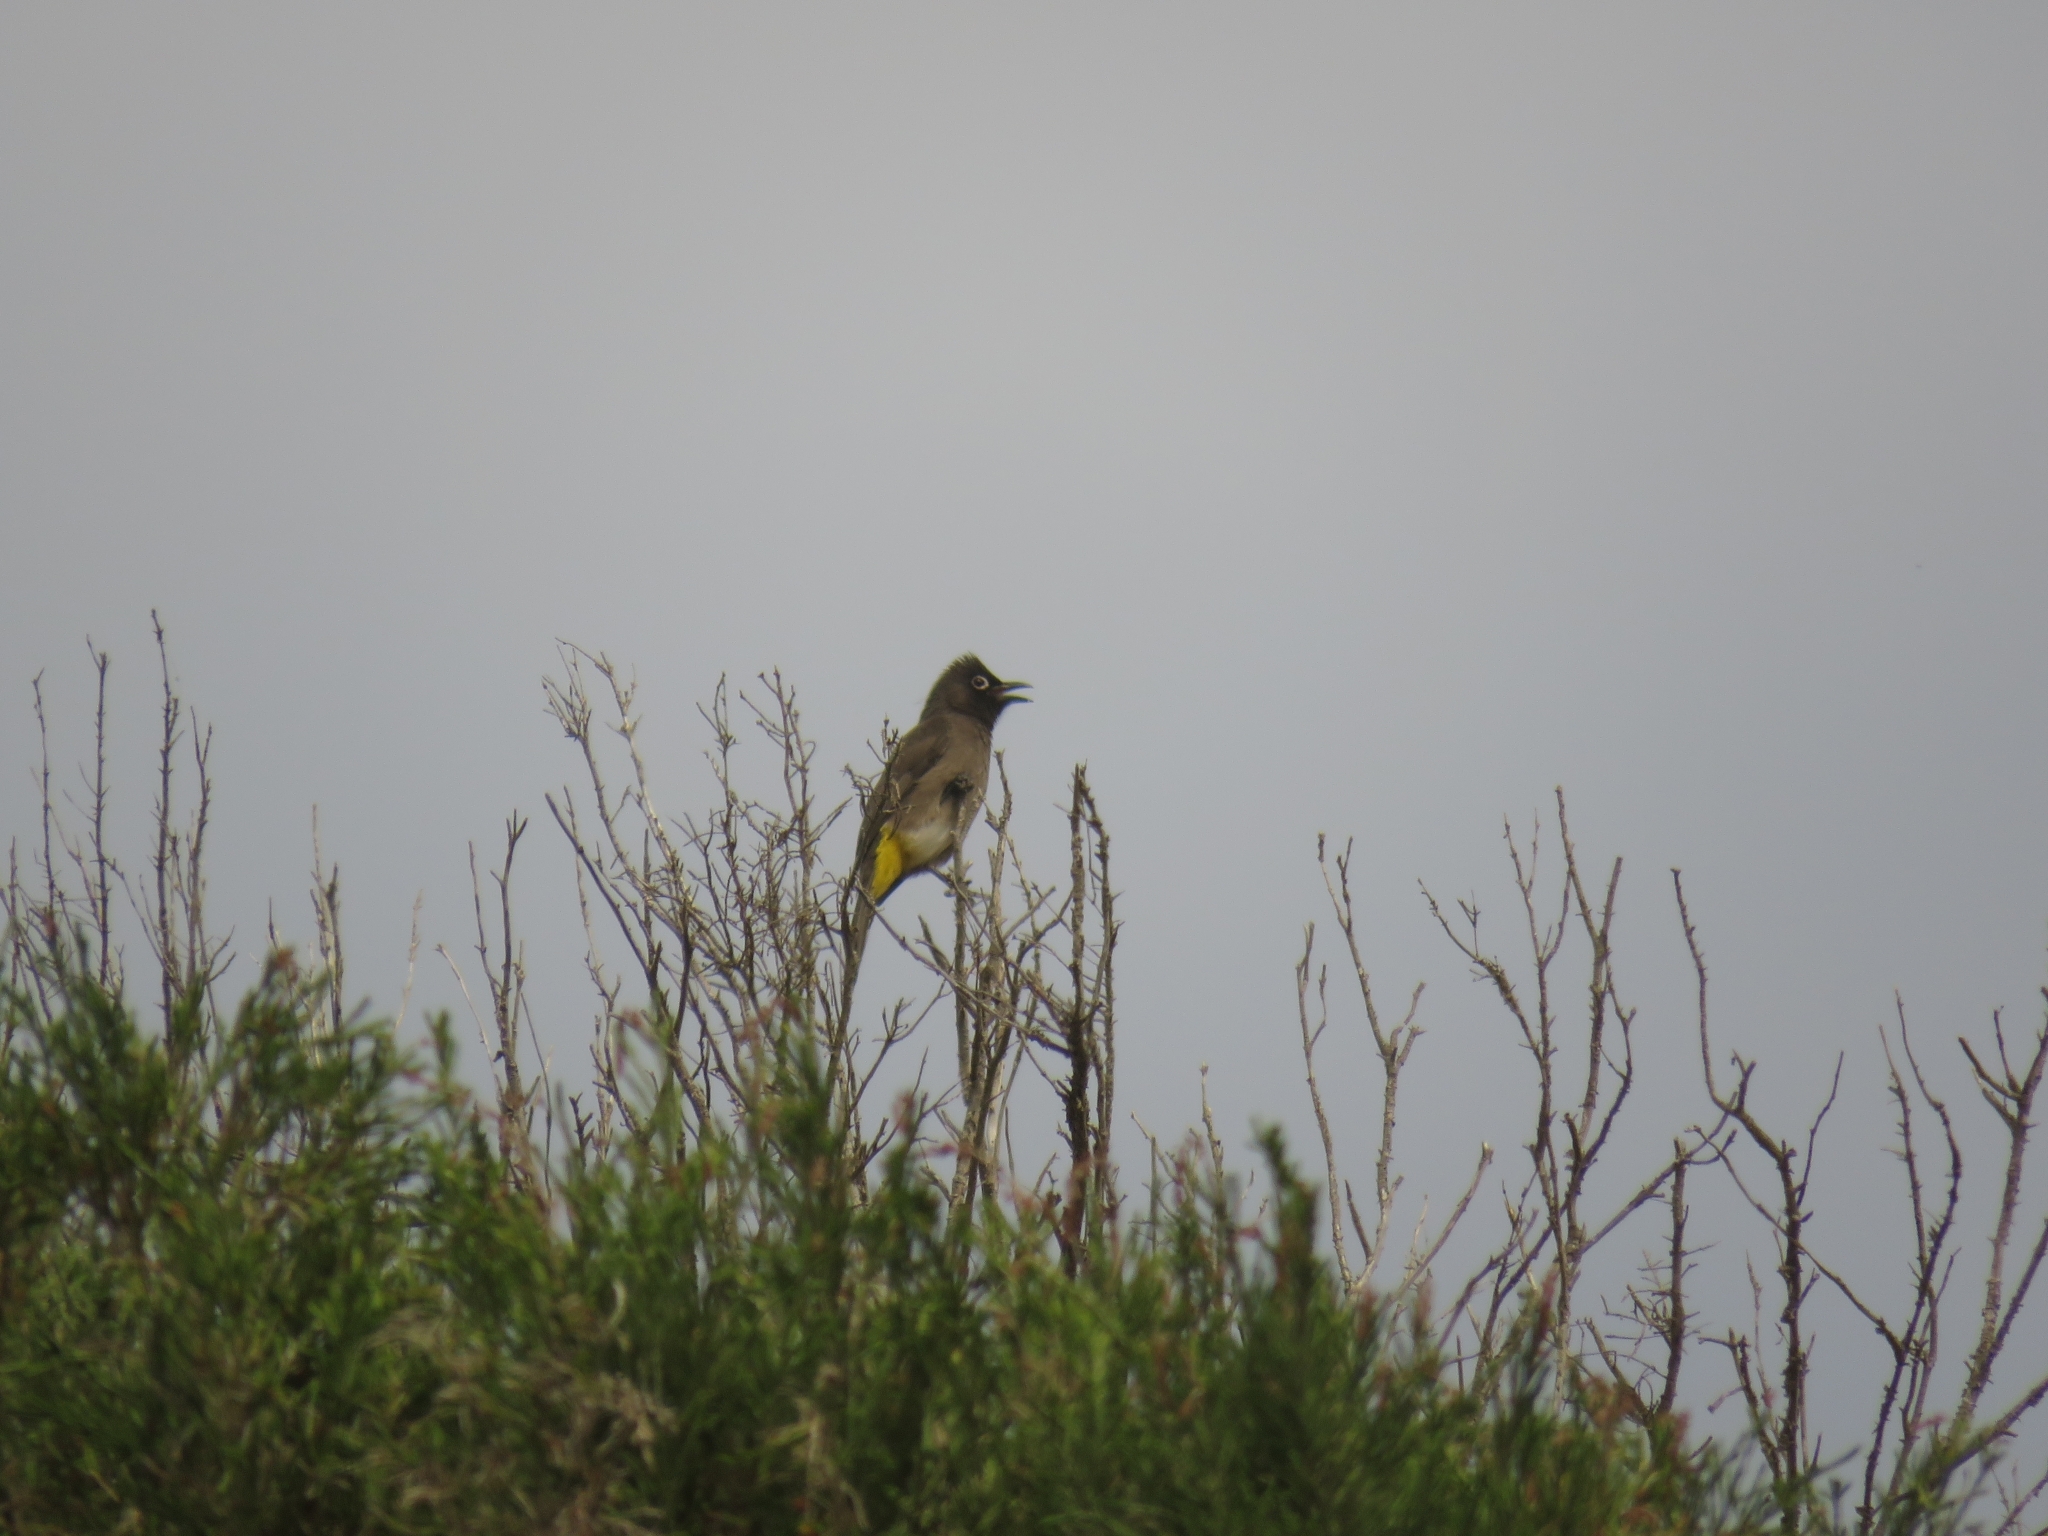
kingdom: Animalia
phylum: Chordata
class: Aves
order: Passeriformes
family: Pycnonotidae
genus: Pycnonotus
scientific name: Pycnonotus capensis
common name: Cape bulbul
